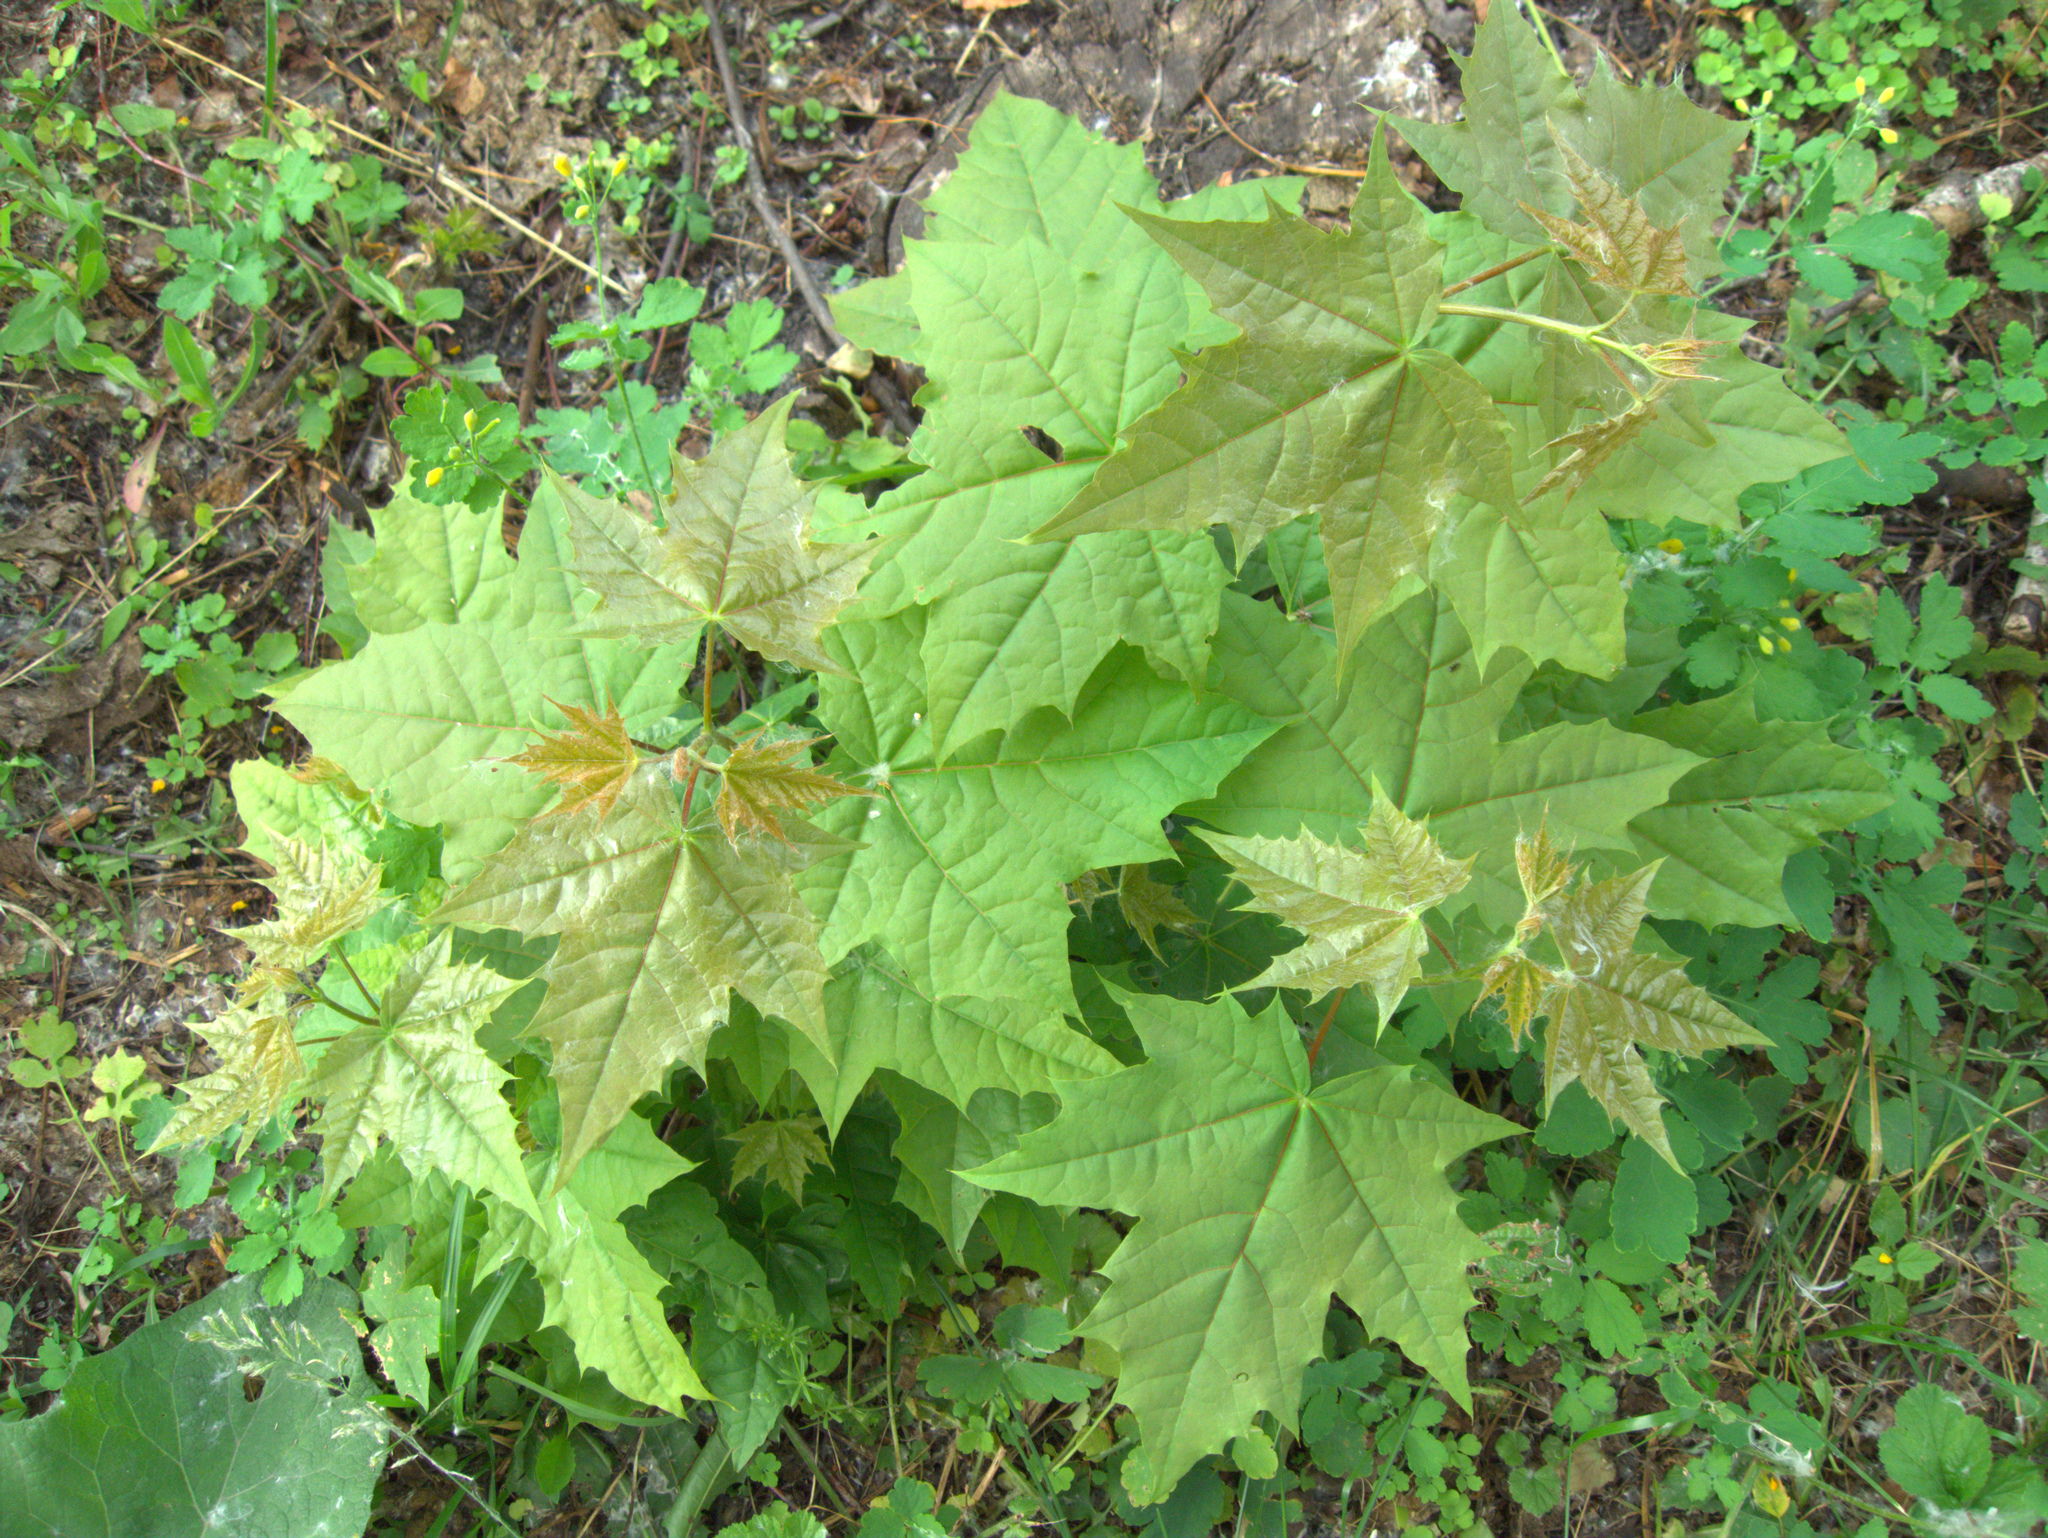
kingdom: Plantae
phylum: Tracheophyta
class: Magnoliopsida
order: Sapindales
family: Sapindaceae
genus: Acer
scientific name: Acer platanoides
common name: Norway maple
